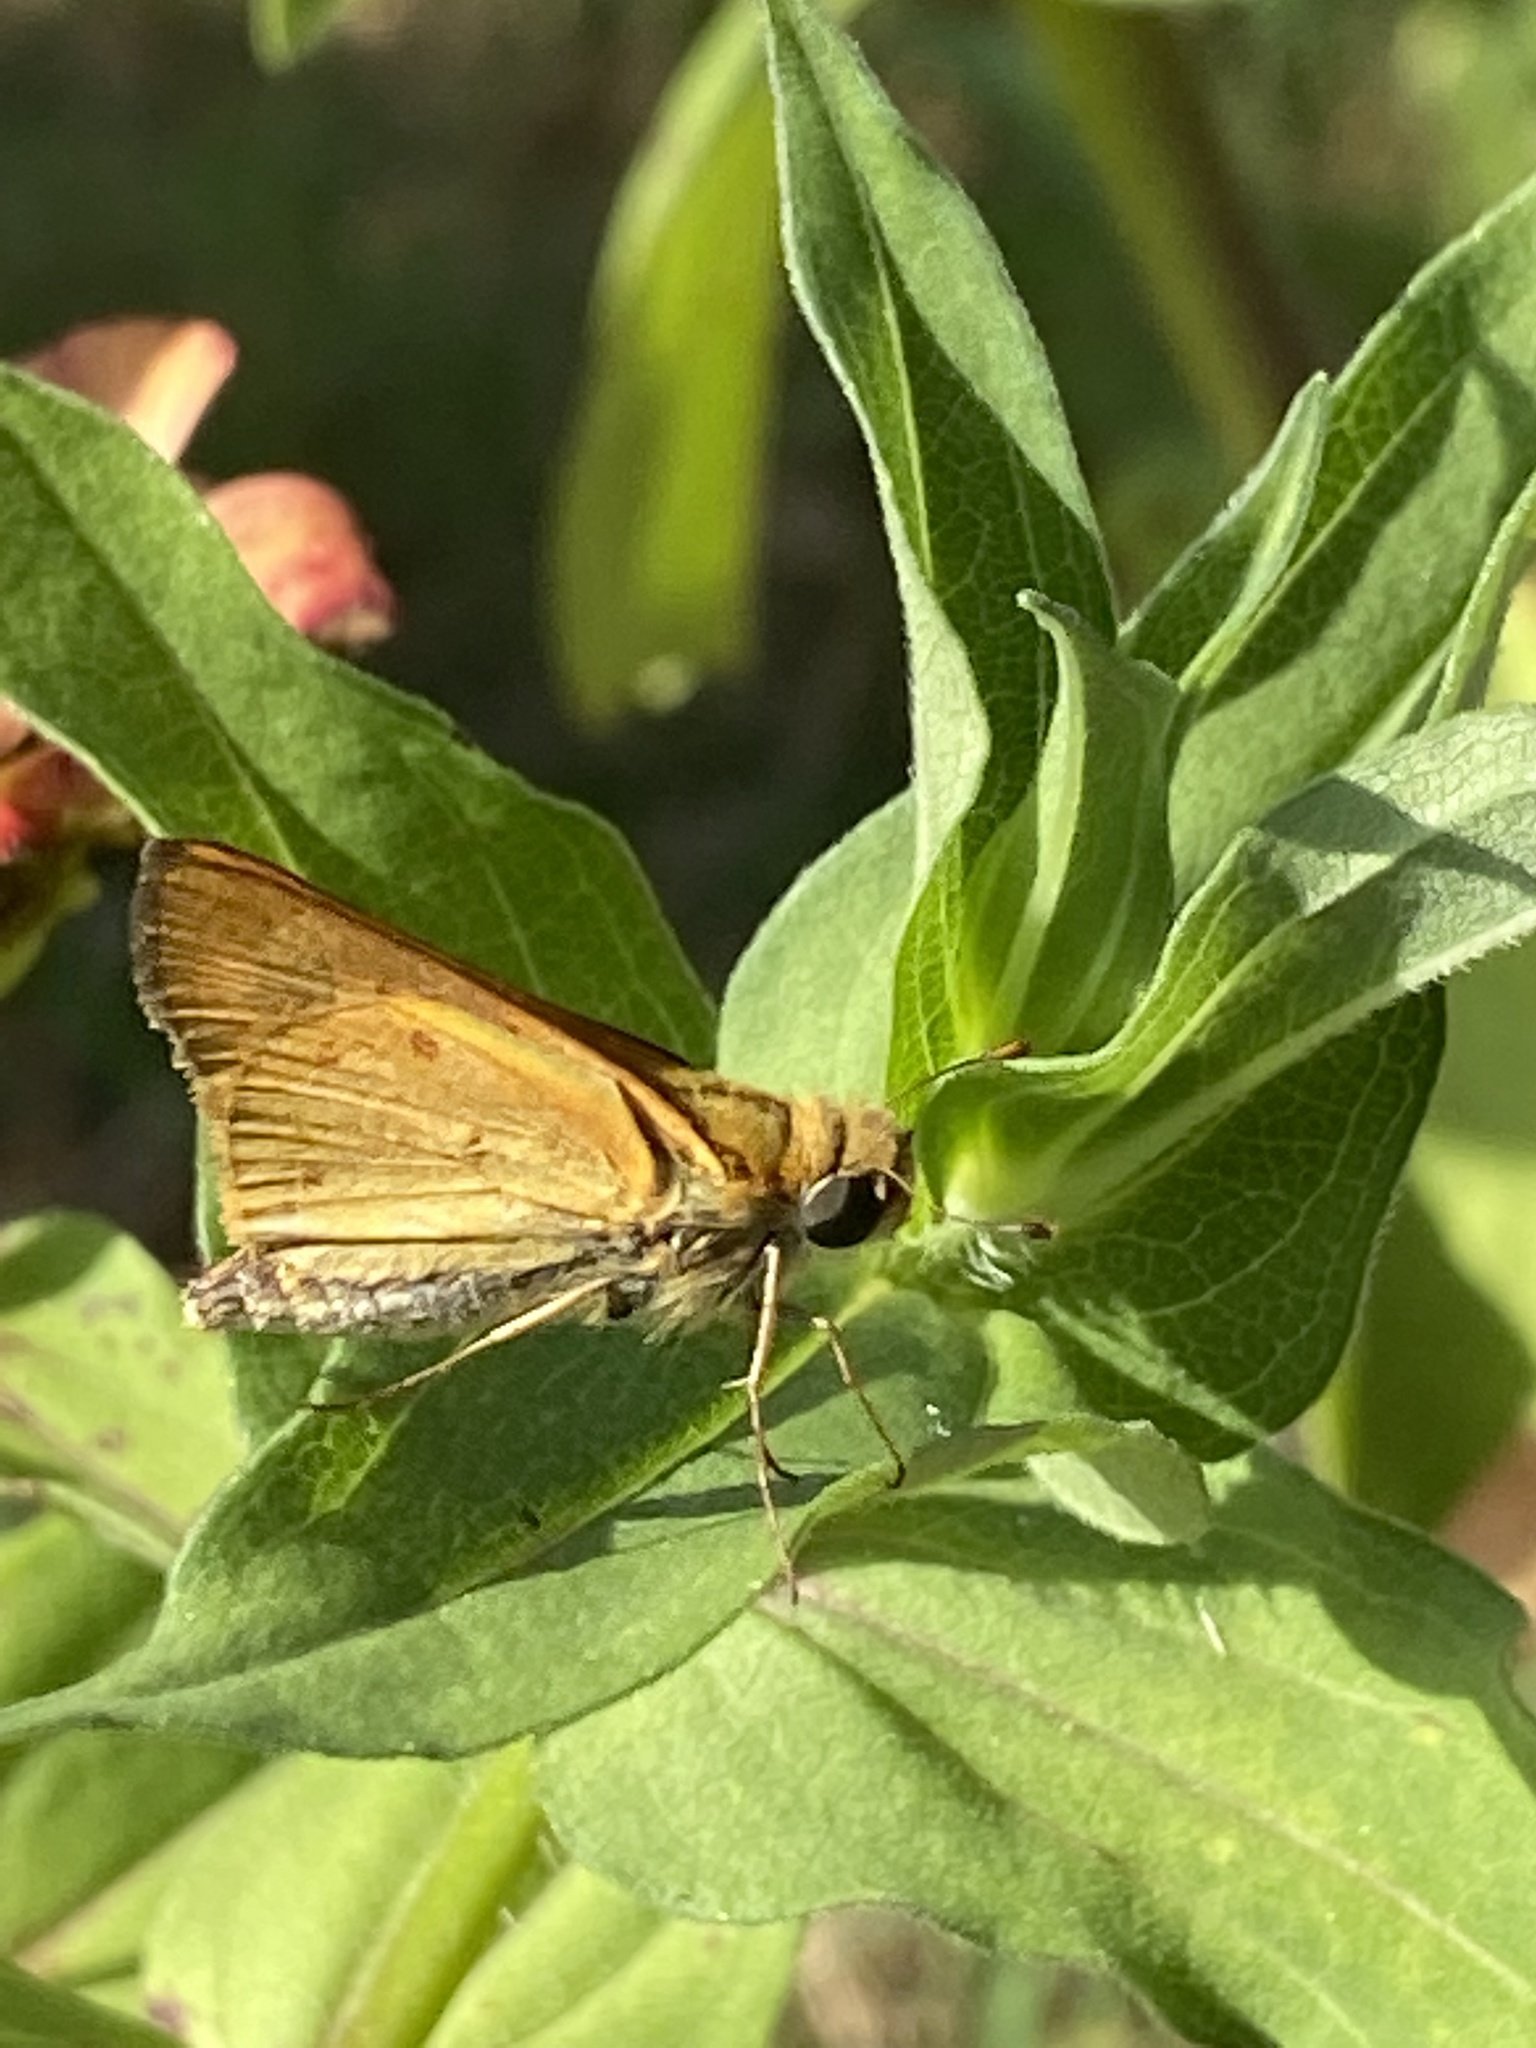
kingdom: Animalia
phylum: Arthropoda
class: Insecta
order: Lepidoptera
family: Hesperiidae
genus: Hylephila
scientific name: Hylephila phyleus
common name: Fiery skipper
